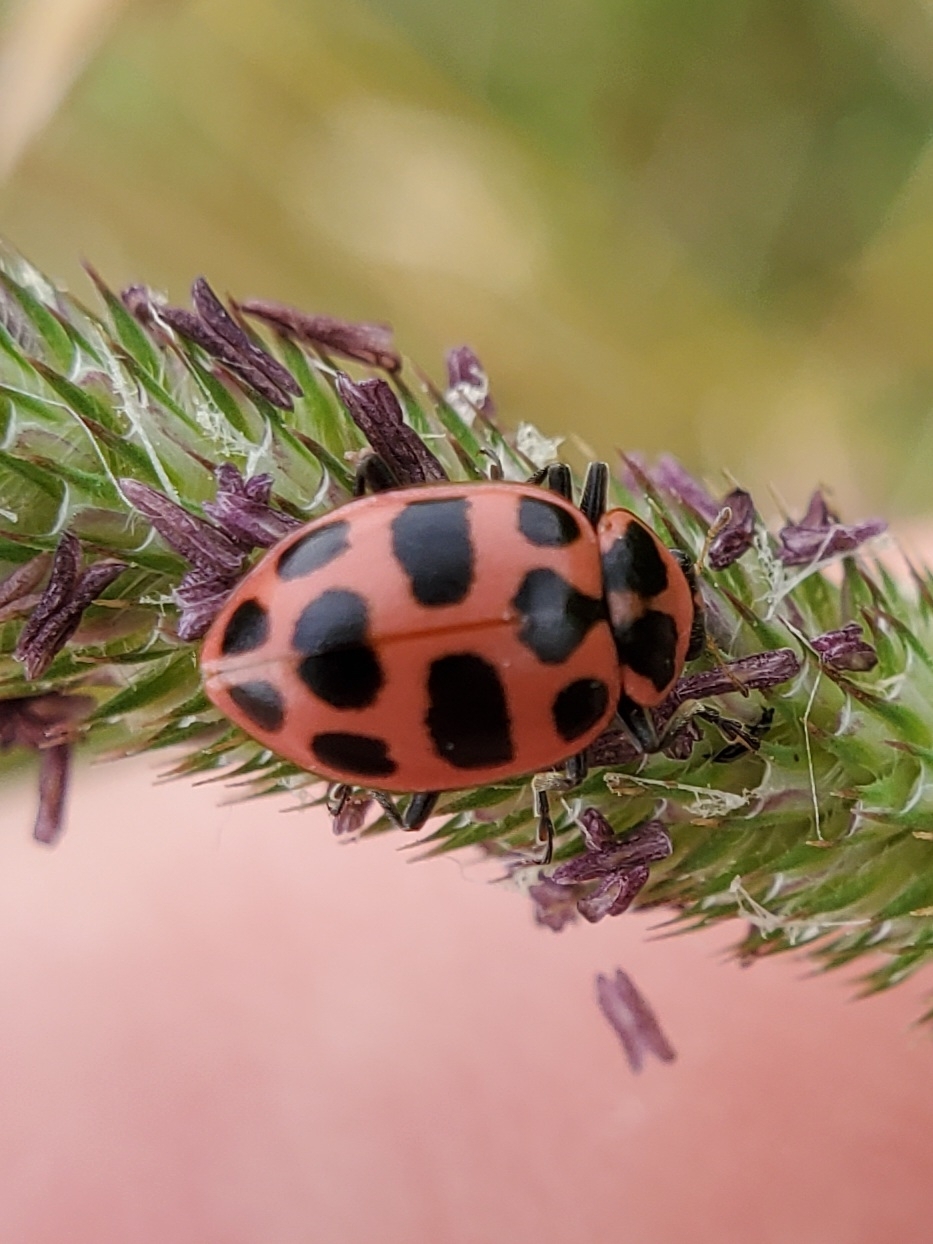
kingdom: Animalia
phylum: Arthropoda
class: Insecta
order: Coleoptera
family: Coccinellidae
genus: Coleomegilla
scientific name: Coleomegilla maculata
